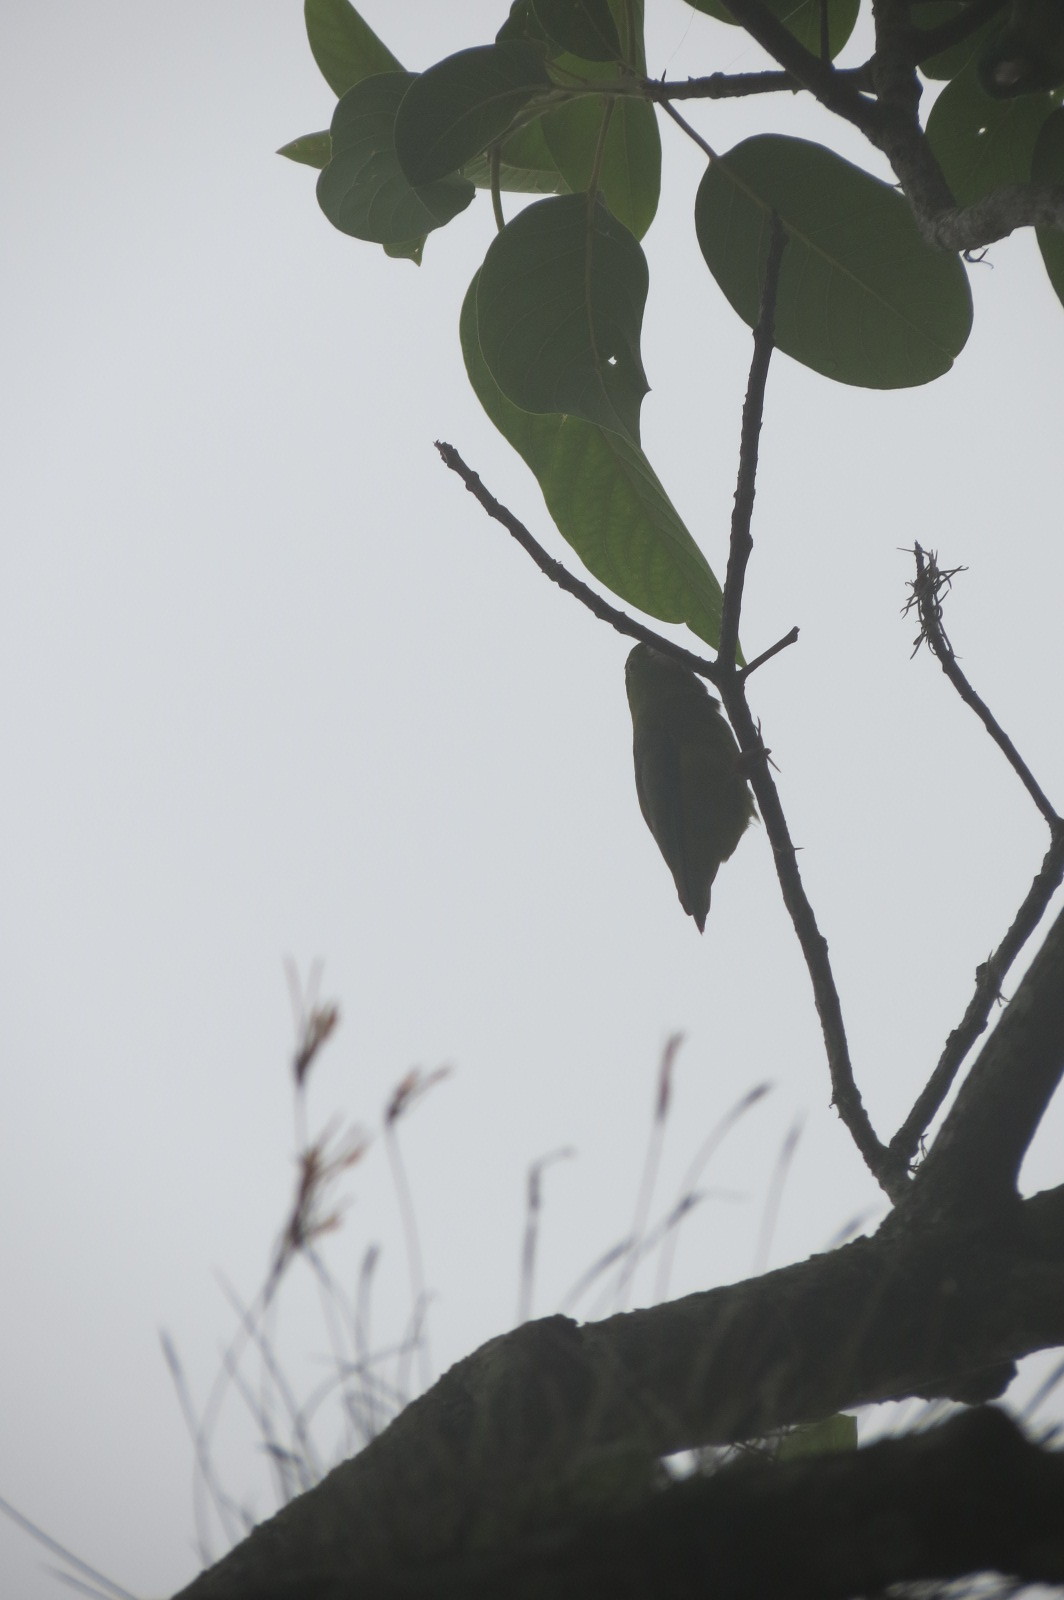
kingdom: Animalia
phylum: Chordata
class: Aves
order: Psittaciformes
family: Psittacidae
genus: Brotogeris
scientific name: Brotogeris jugularis
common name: Orange-chinned parakeet
